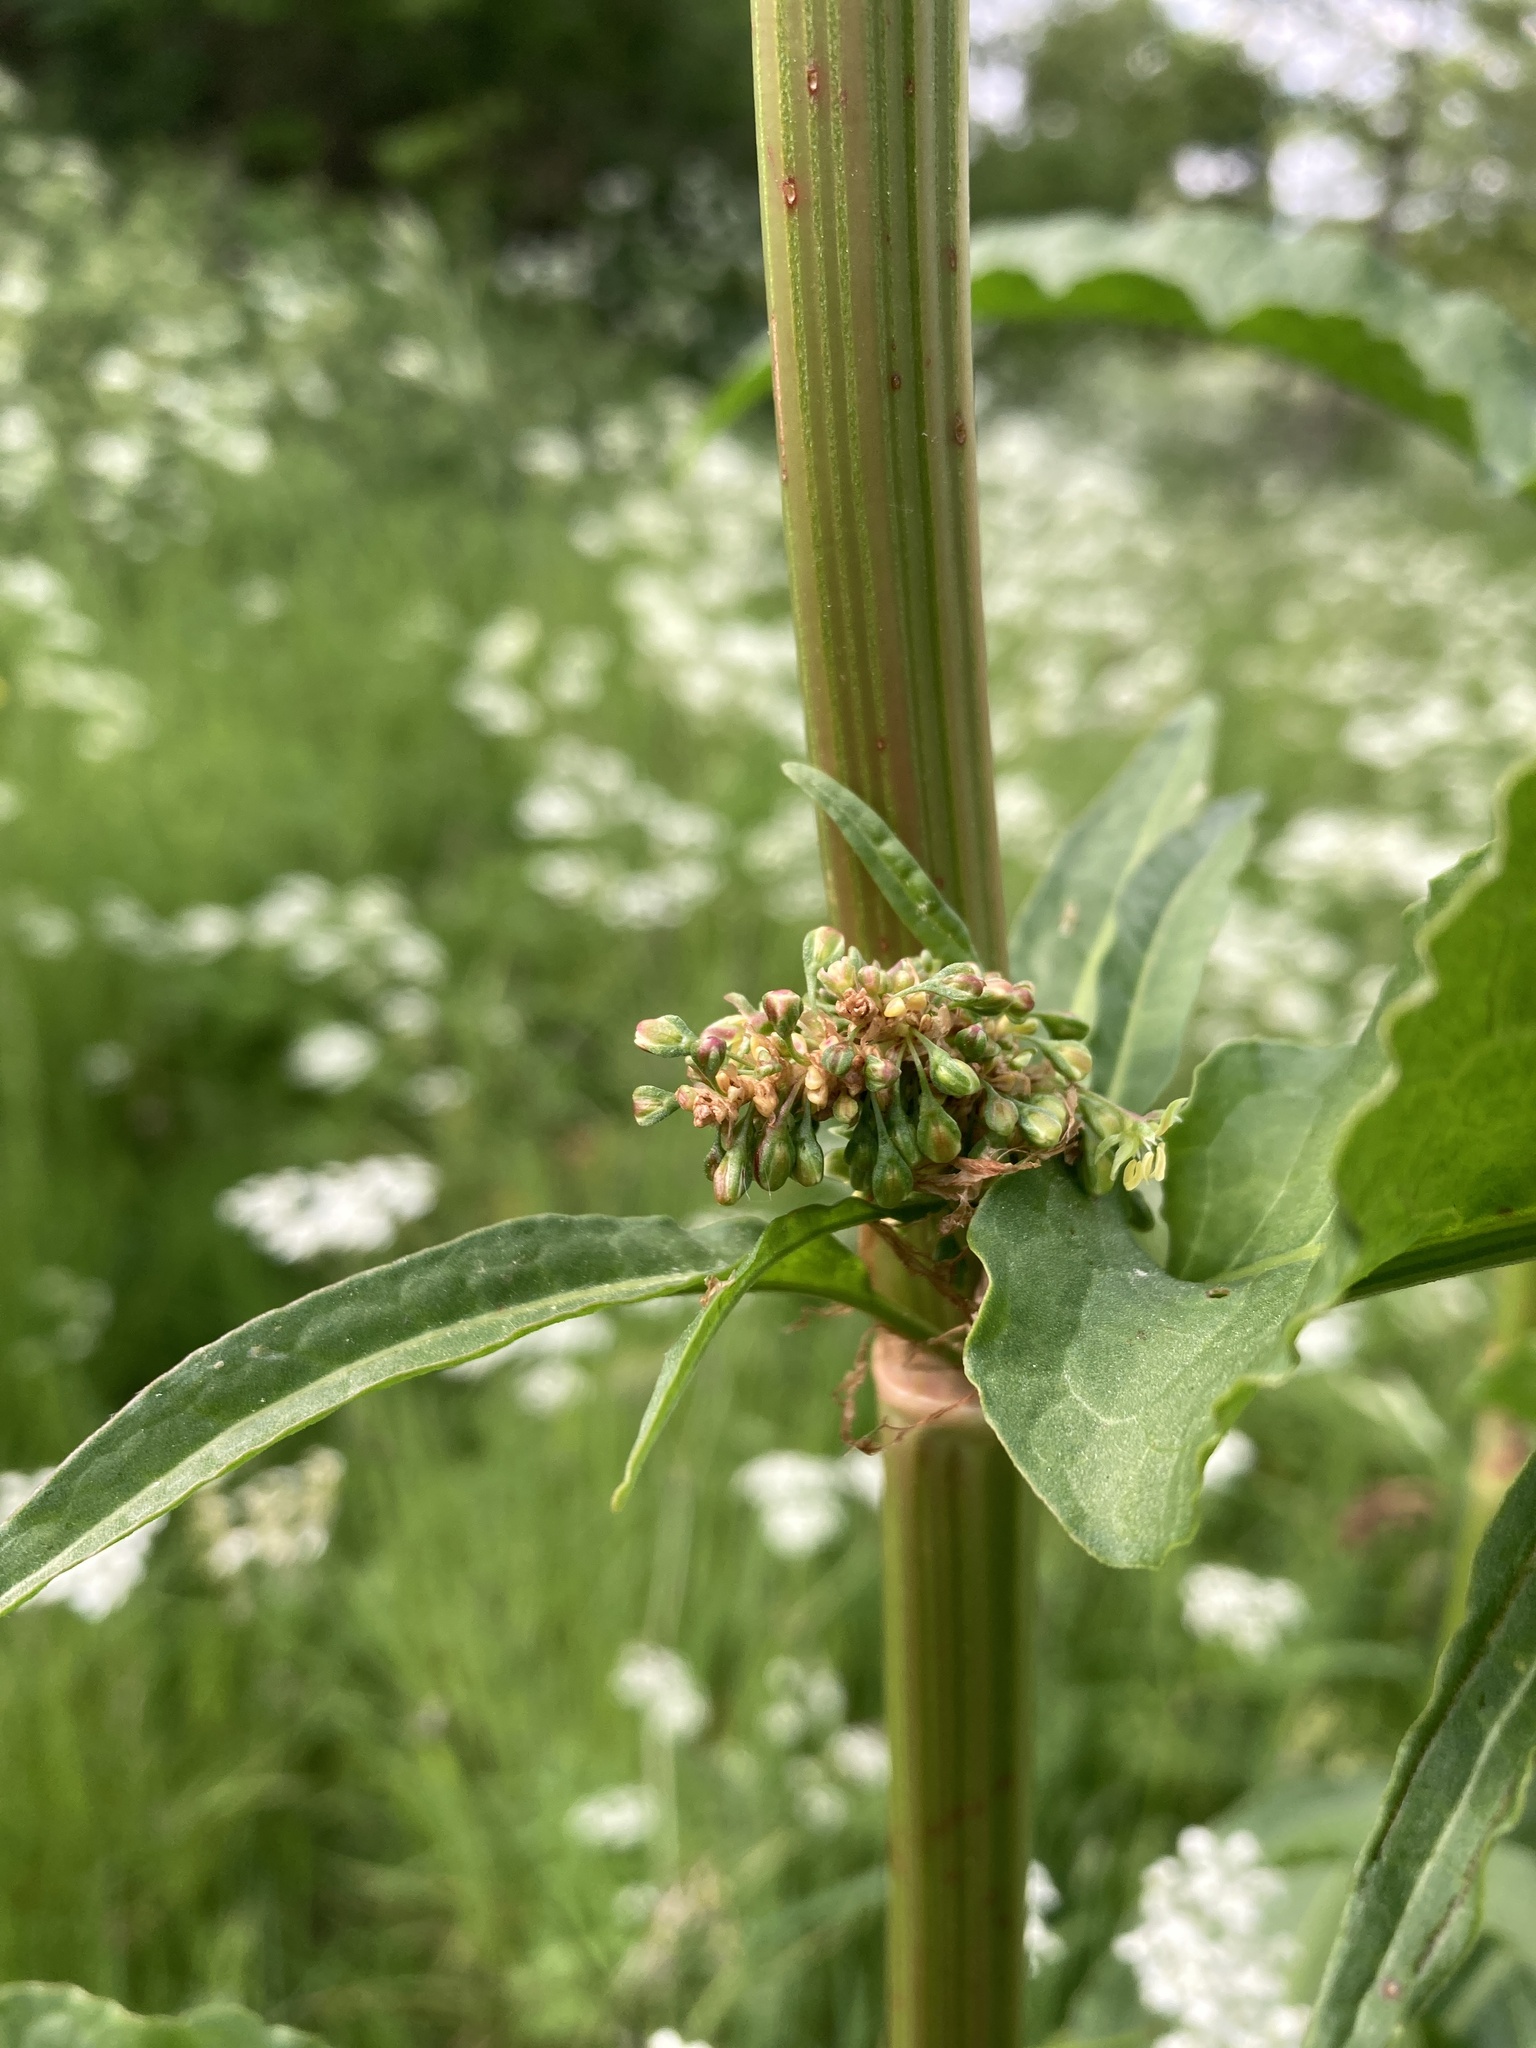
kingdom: Plantae
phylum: Tracheophyta
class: Magnoliopsida
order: Caryophyllales
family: Polygonaceae
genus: Rumex
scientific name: Rumex cristatus
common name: Greek dock
